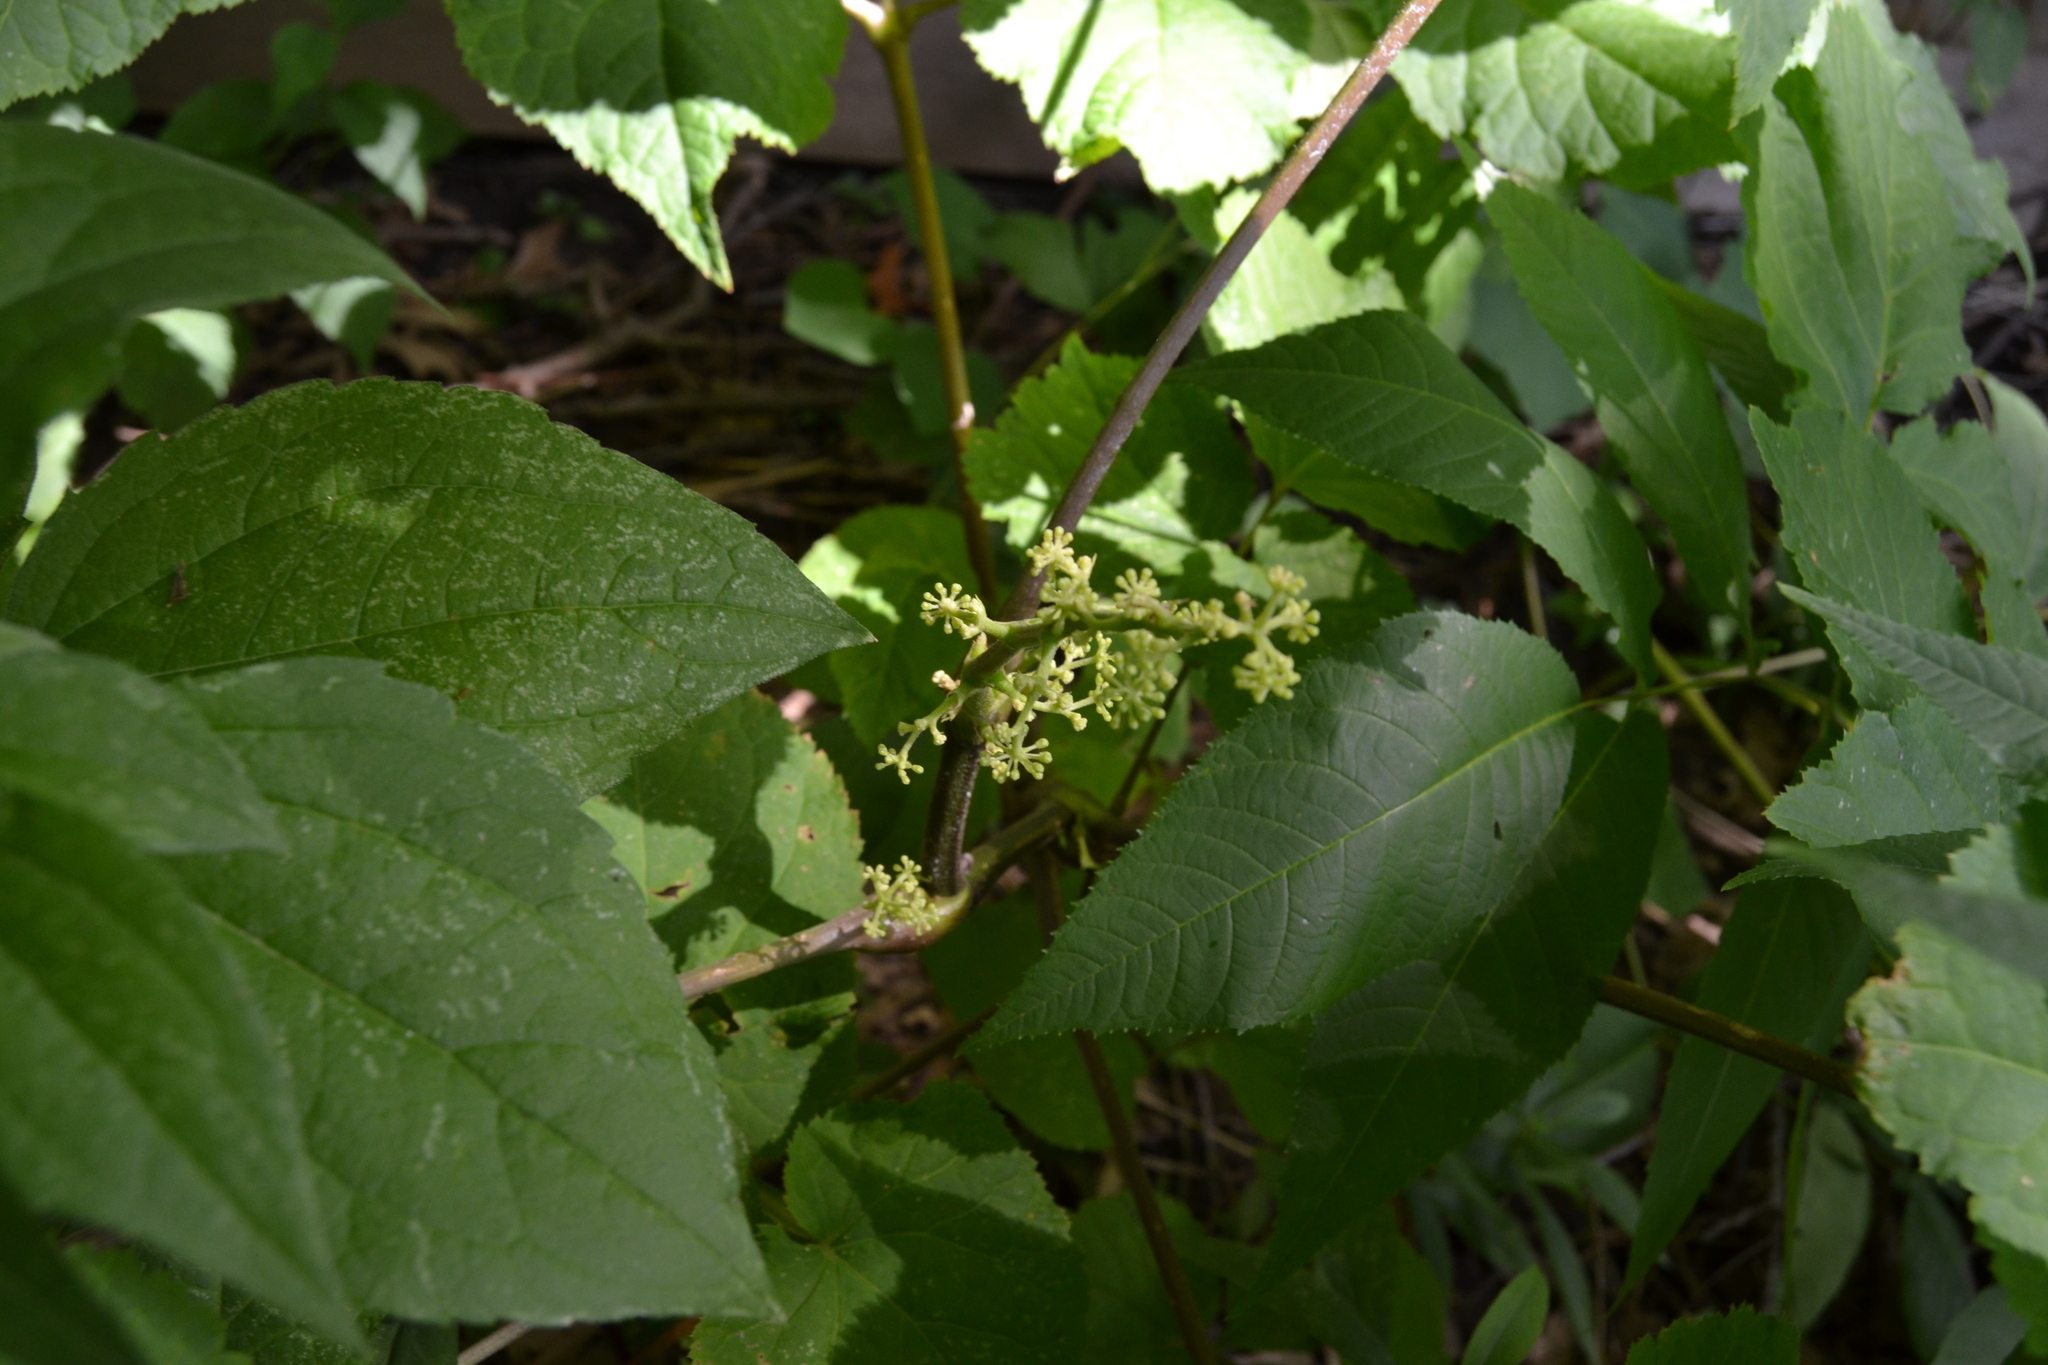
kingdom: Plantae
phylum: Tracheophyta
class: Magnoliopsida
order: Apiales
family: Araliaceae
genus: Aralia
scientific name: Aralia racemosa
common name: American-spikenard
